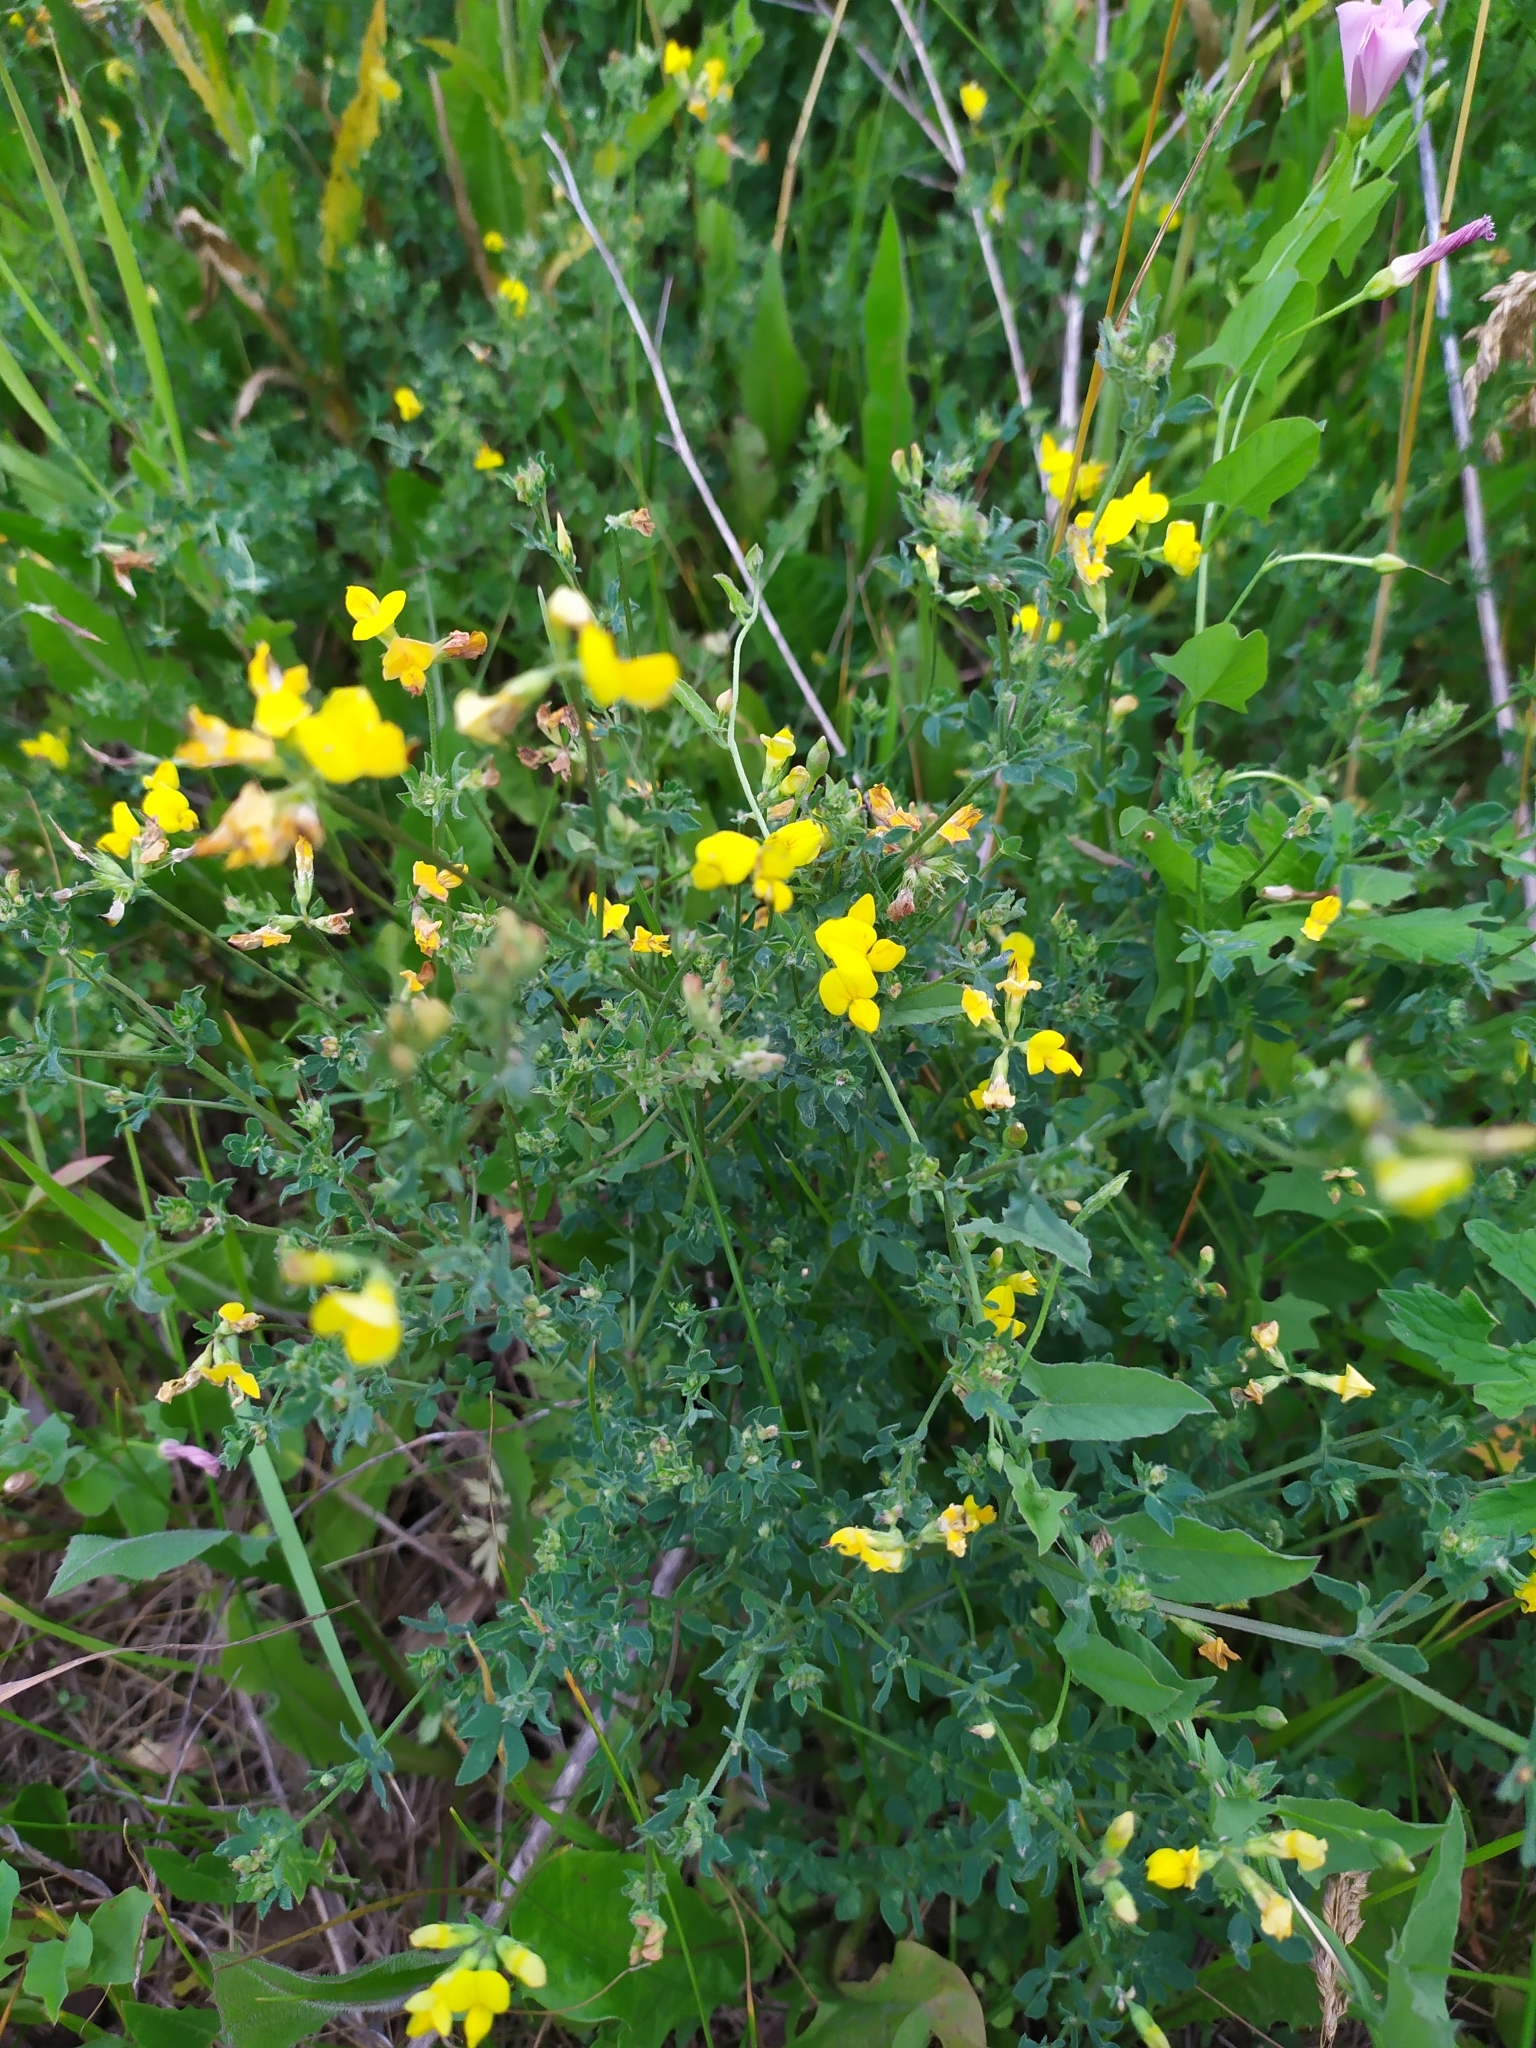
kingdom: Plantae
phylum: Tracheophyta
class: Magnoliopsida
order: Fabales
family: Fabaceae
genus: Lotus
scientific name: Lotus corniculatus
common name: Common bird's-foot-trefoil
